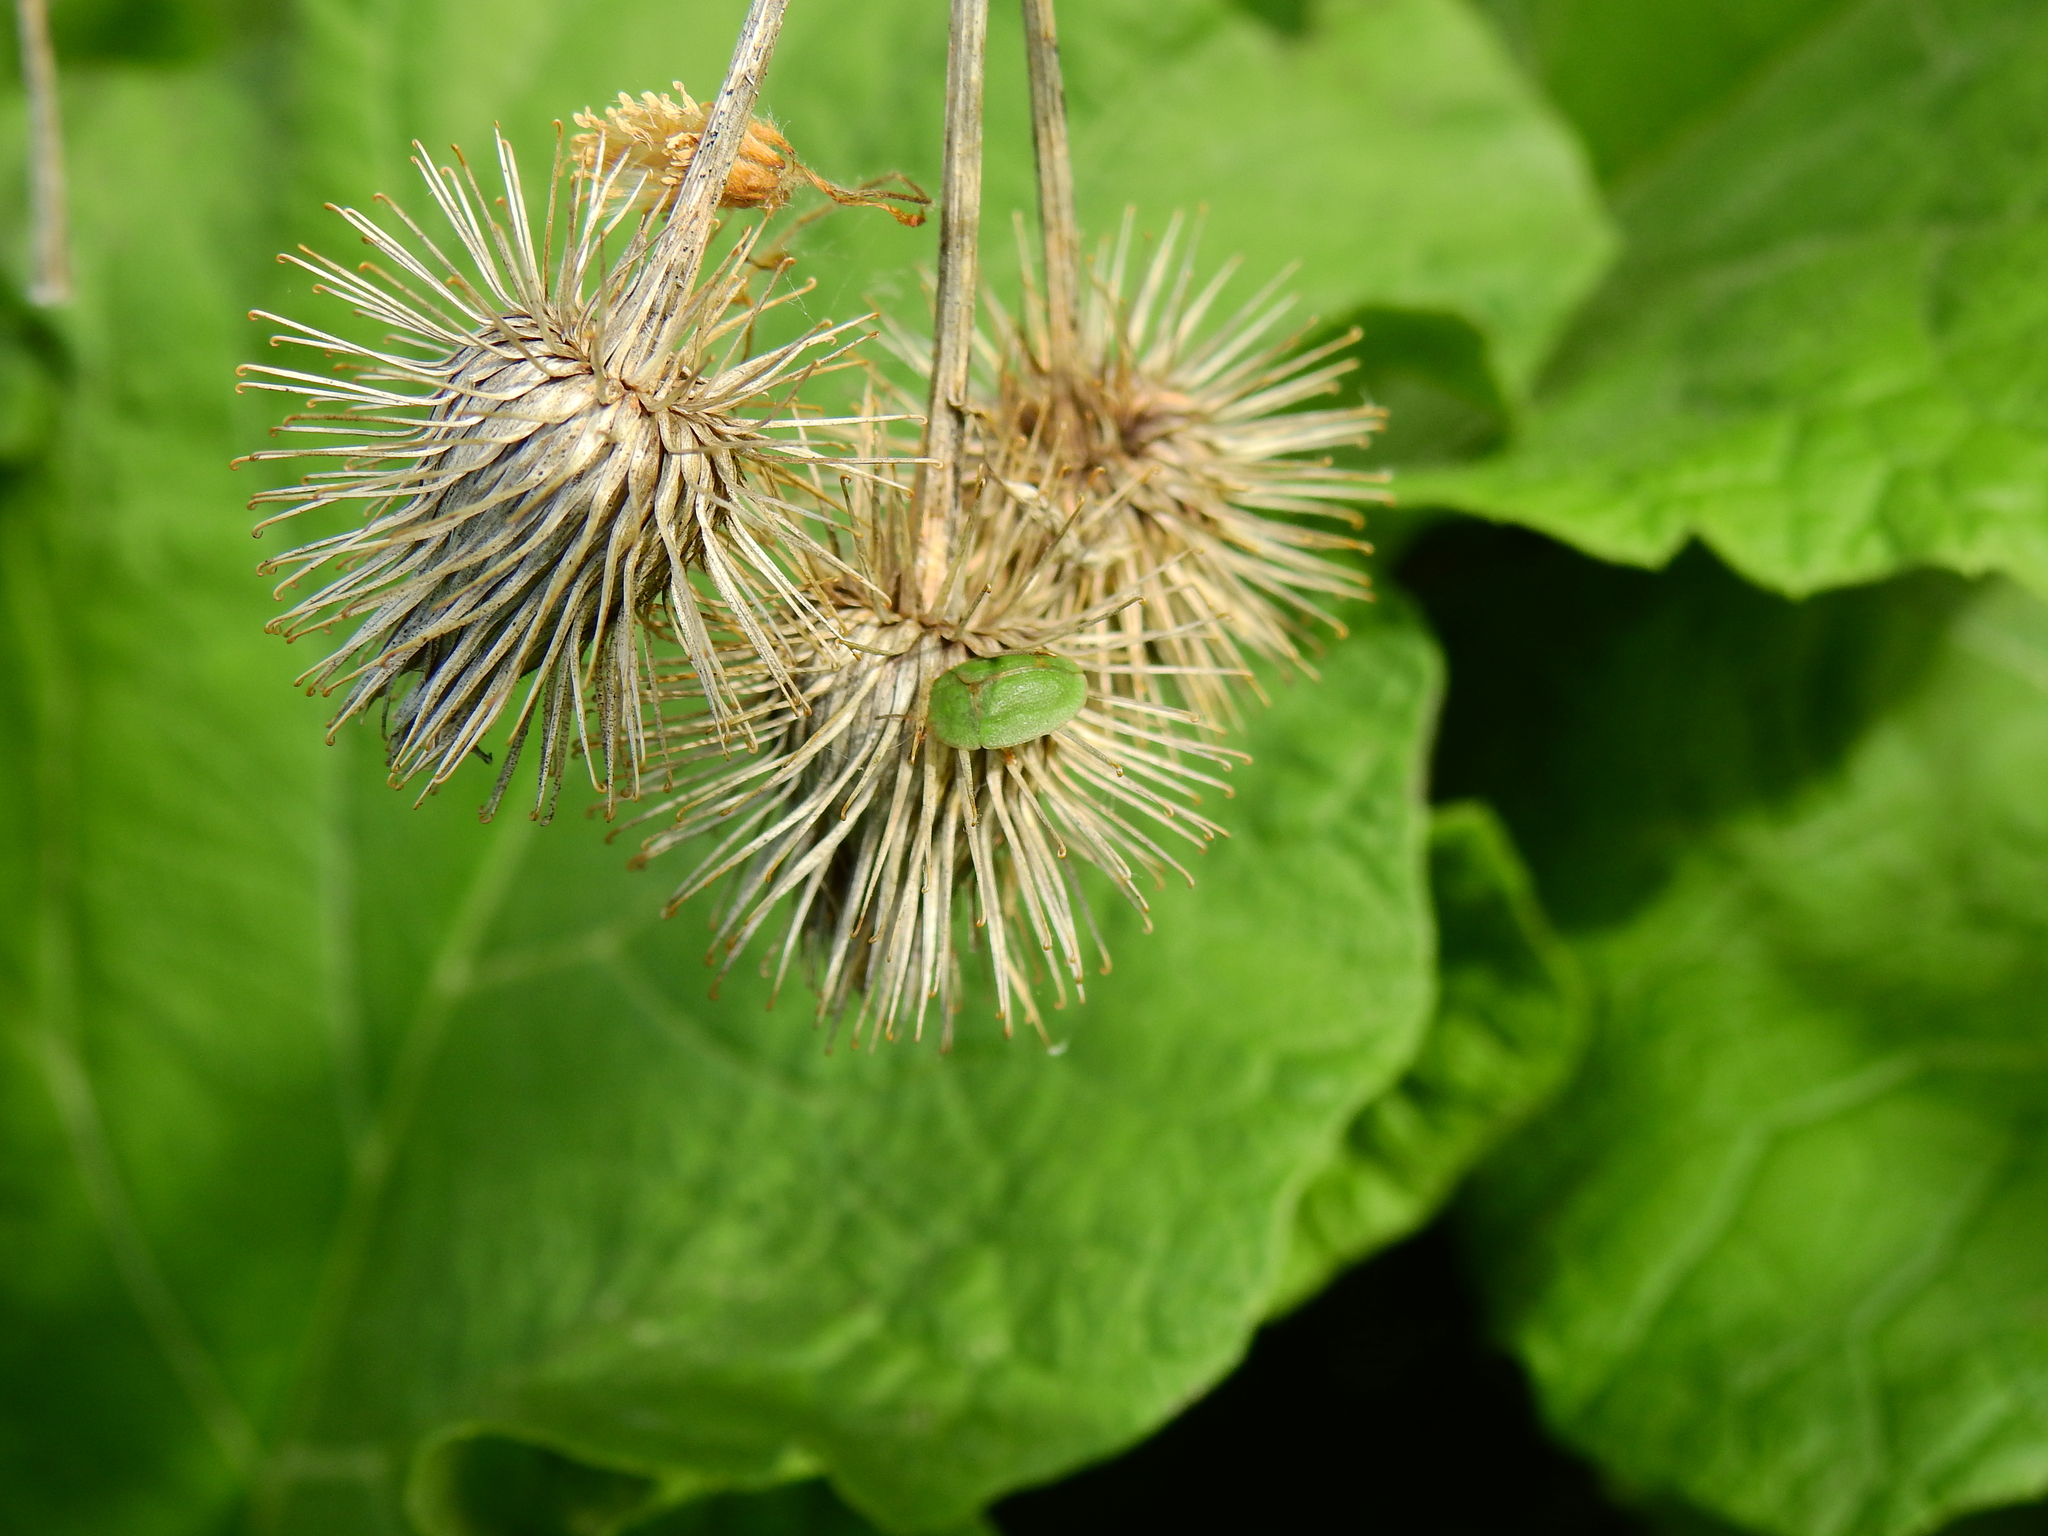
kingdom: Animalia
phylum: Arthropoda
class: Insecta
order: Coleoptera
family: Chrysomelidae
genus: Cassida
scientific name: Cassida rubiginosa
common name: Thistle tortoise beetle
